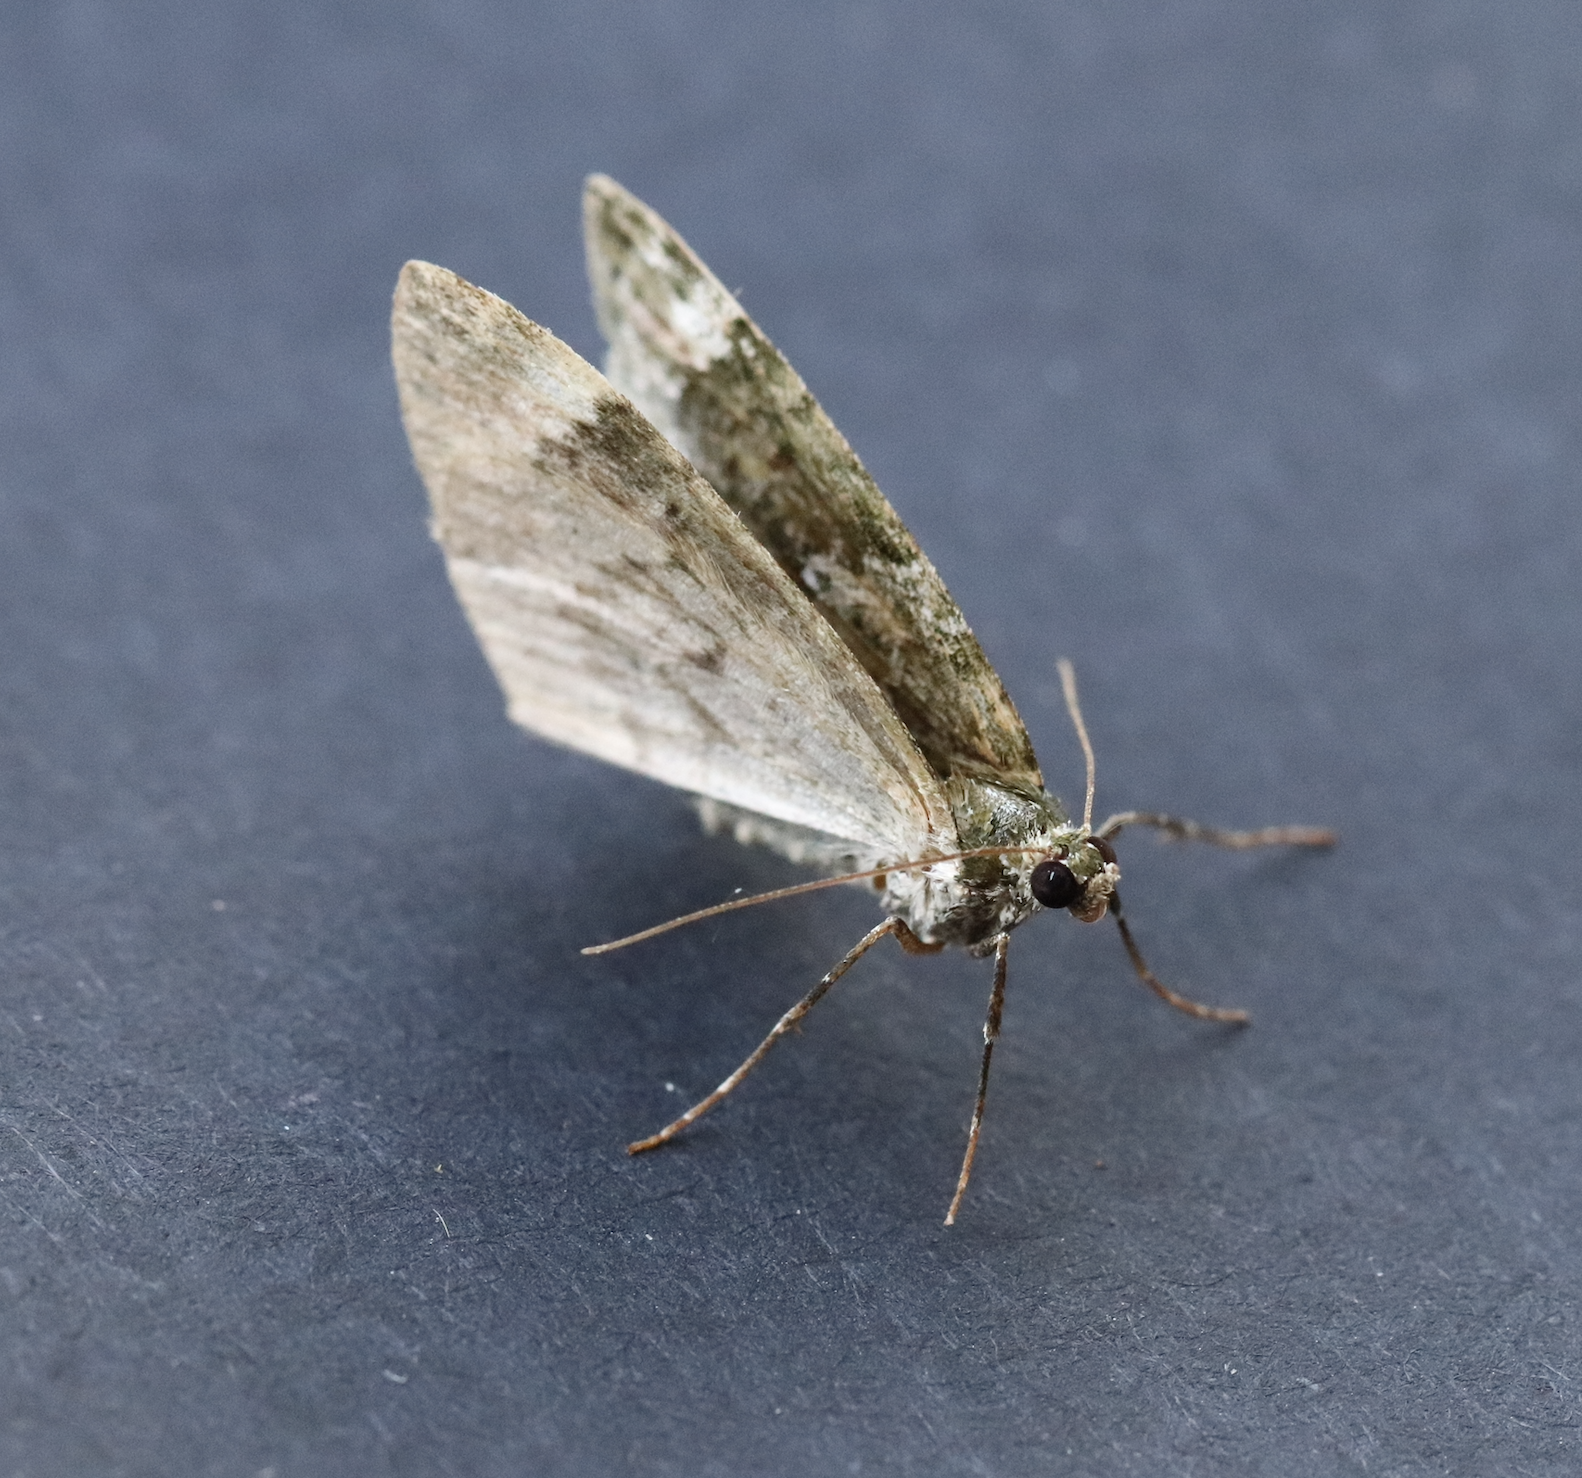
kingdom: Animalia
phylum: Arthropoda
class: Insecta
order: Lepidoptera
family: Geometridae
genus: Chloroclysta
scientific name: Chloroclysta siterata
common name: Red-green carpet
